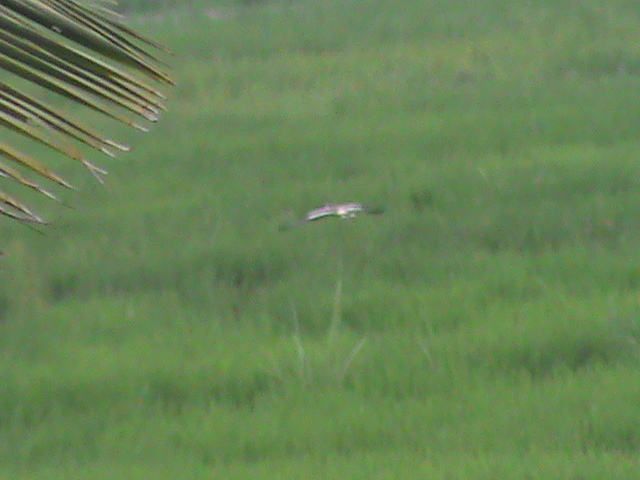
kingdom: Animalia
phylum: Chordata
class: Aves
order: Charadriiformes
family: Charadriidae
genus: Vanellus
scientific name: Vanellus indicus
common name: Red-wattled lapwing
